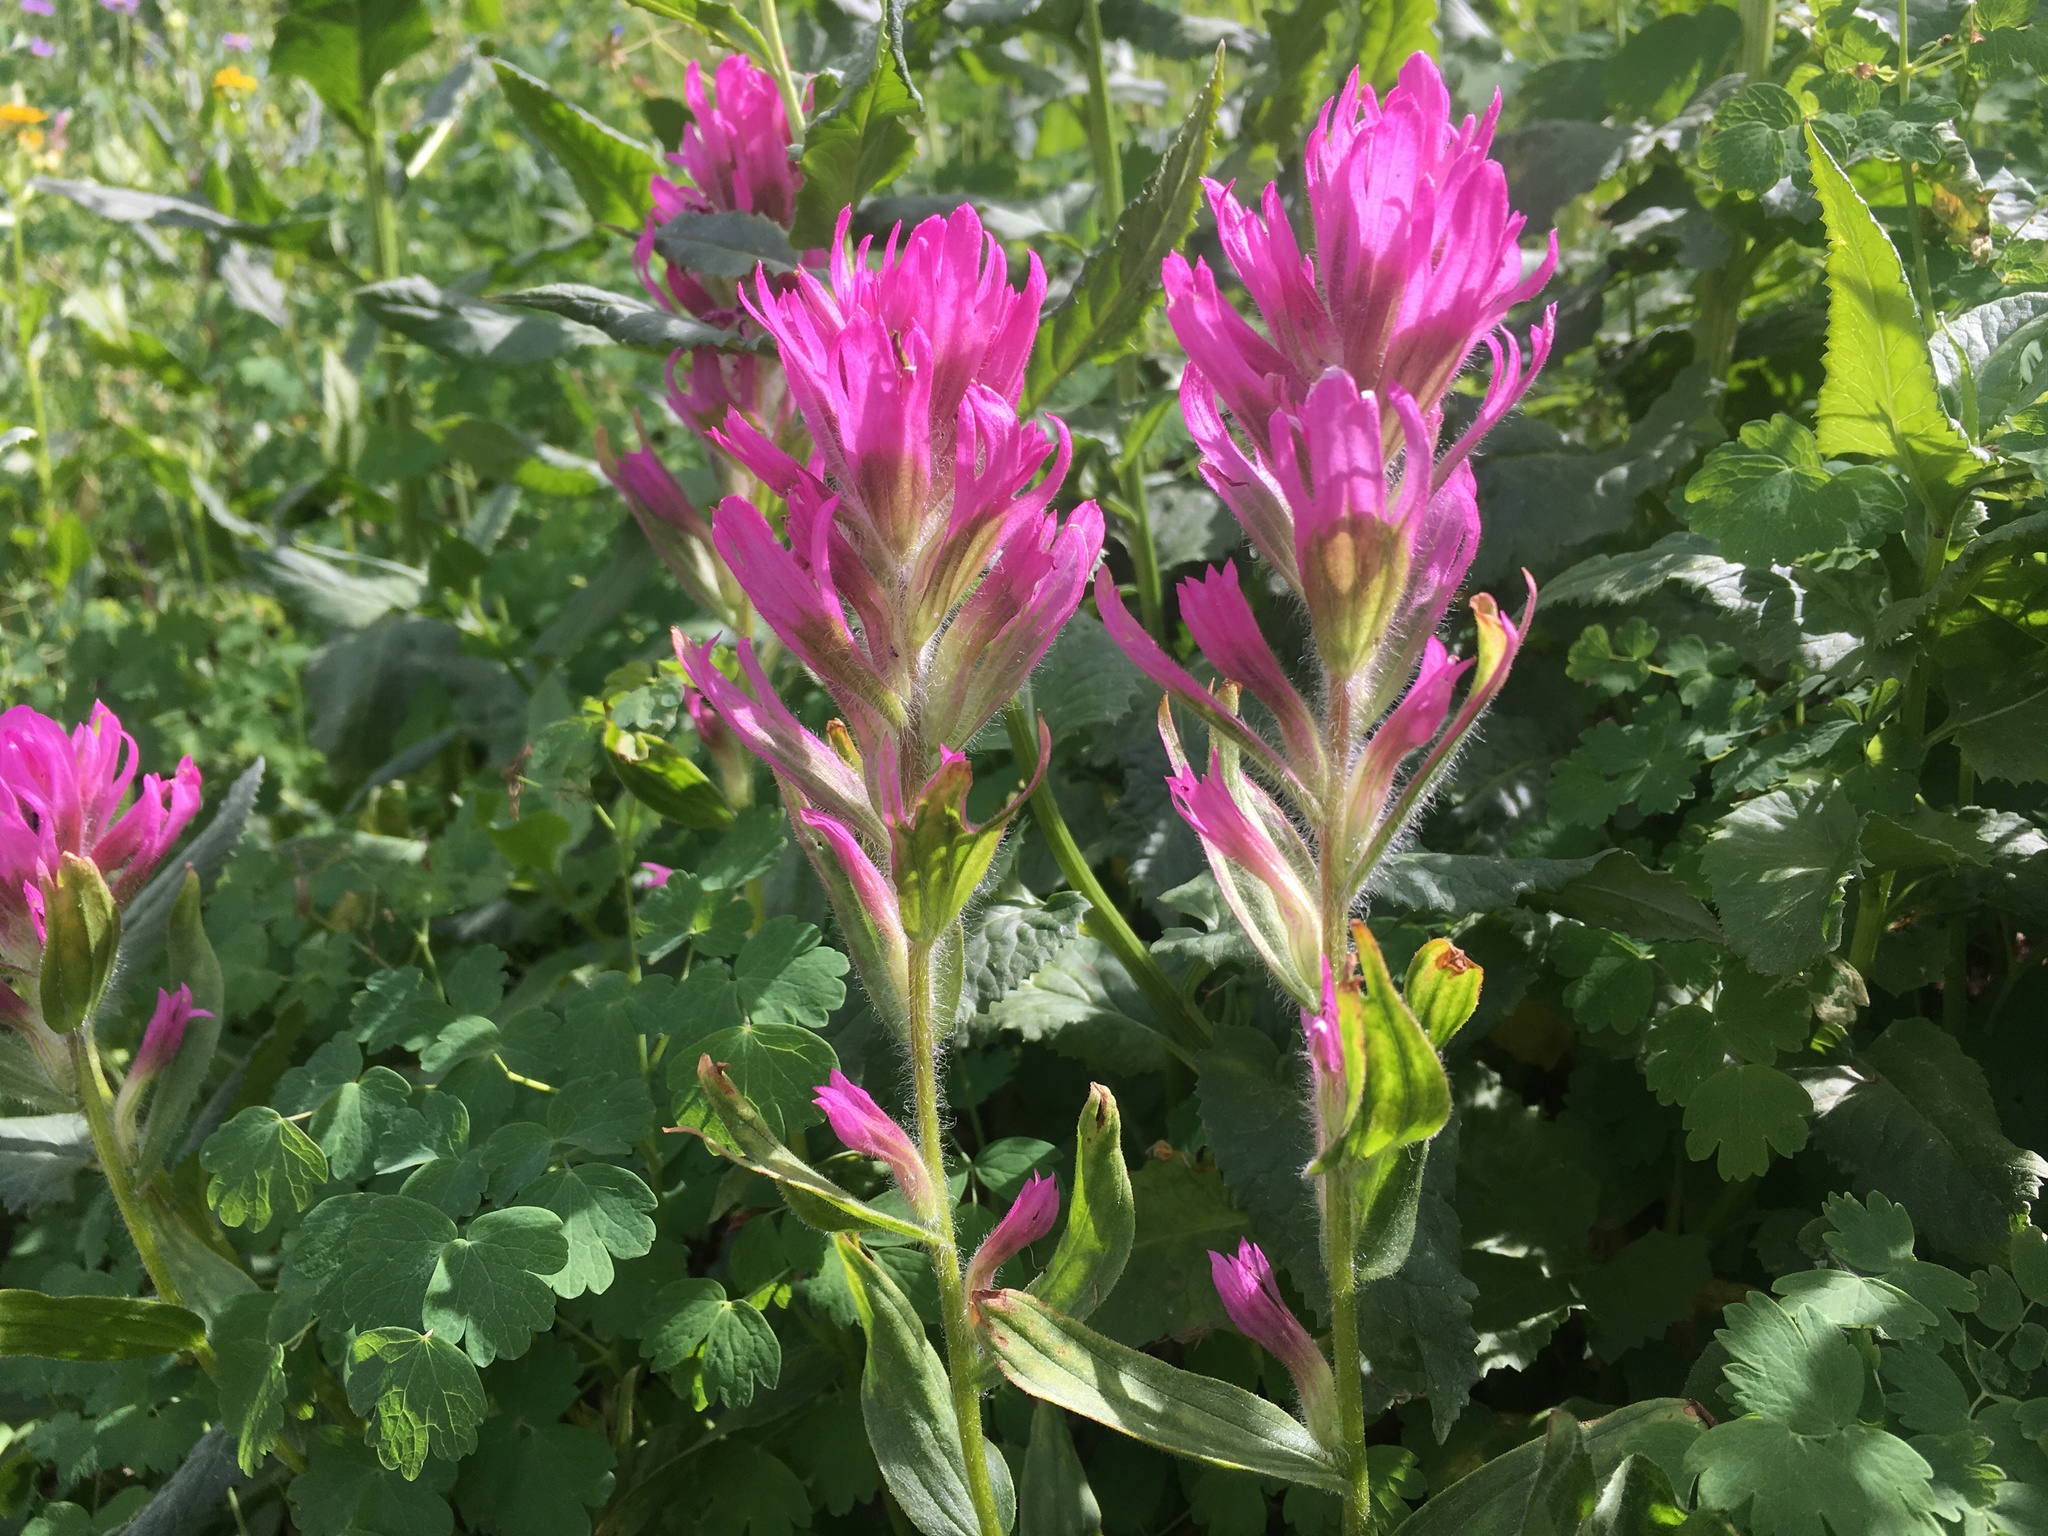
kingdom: Plantae
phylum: Tracheophyta
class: Magnoliopsida
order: Lamiales
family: Orobanchaceae
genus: Castilleja
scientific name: Castilleja rhexifolia
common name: Rocky mountain paintbrush
